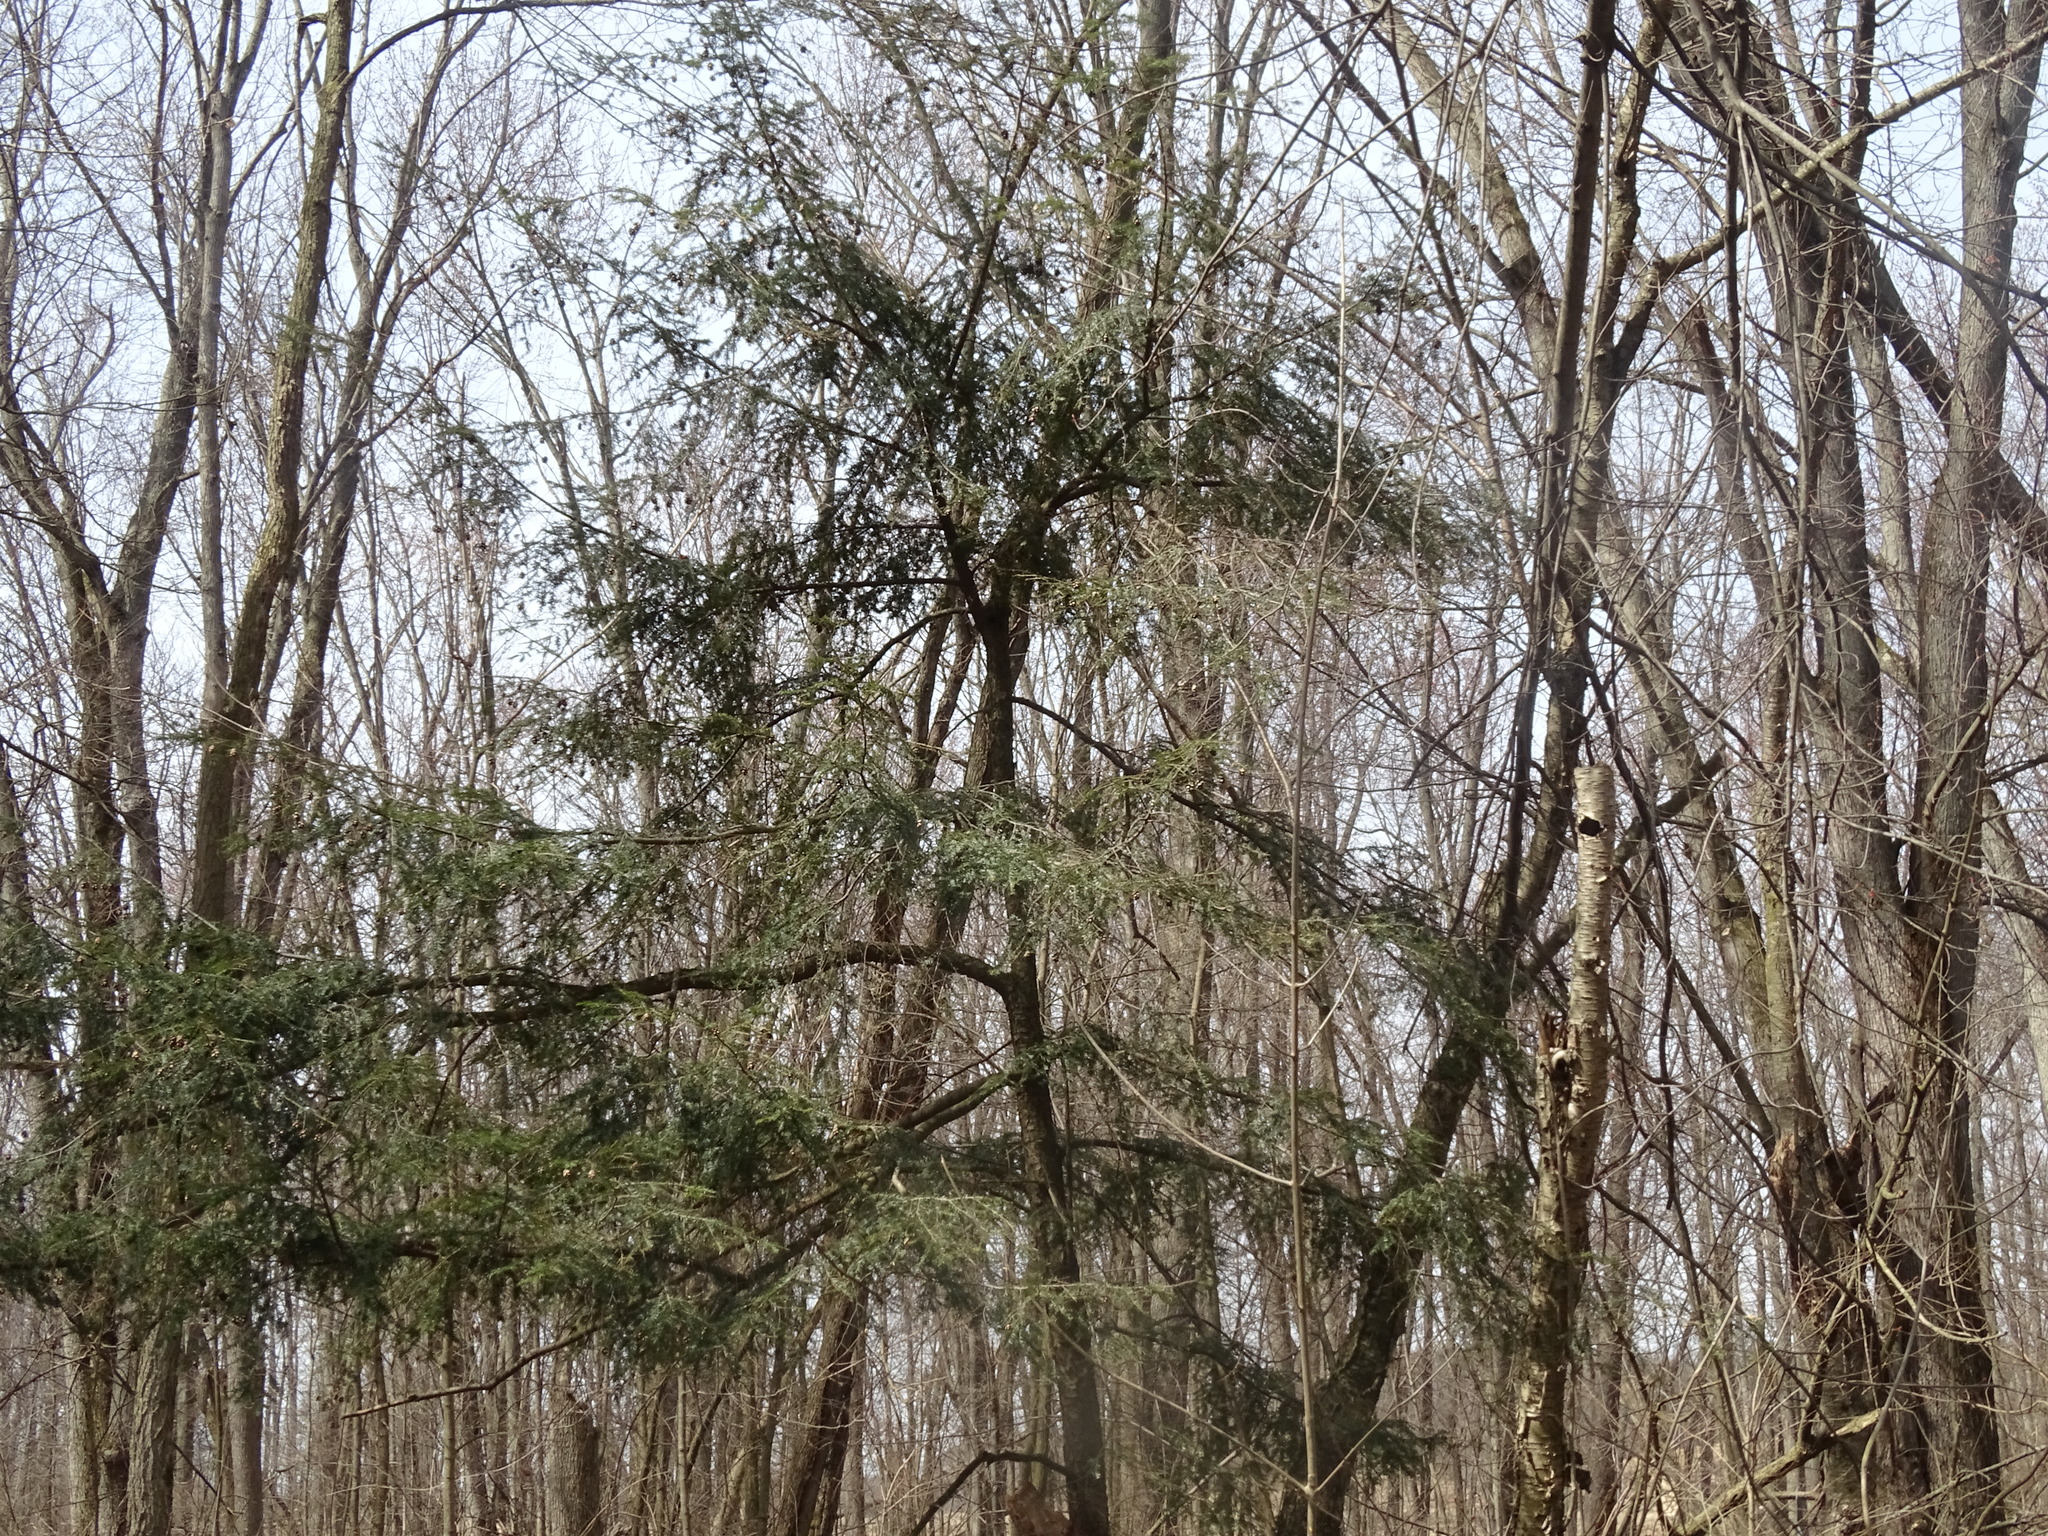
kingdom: Plantae
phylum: Tracheophyta
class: Pinopsida
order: Pinales
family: Pinaceae
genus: Tsuga
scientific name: Tsuga canadensis
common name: Eastern hemlock
